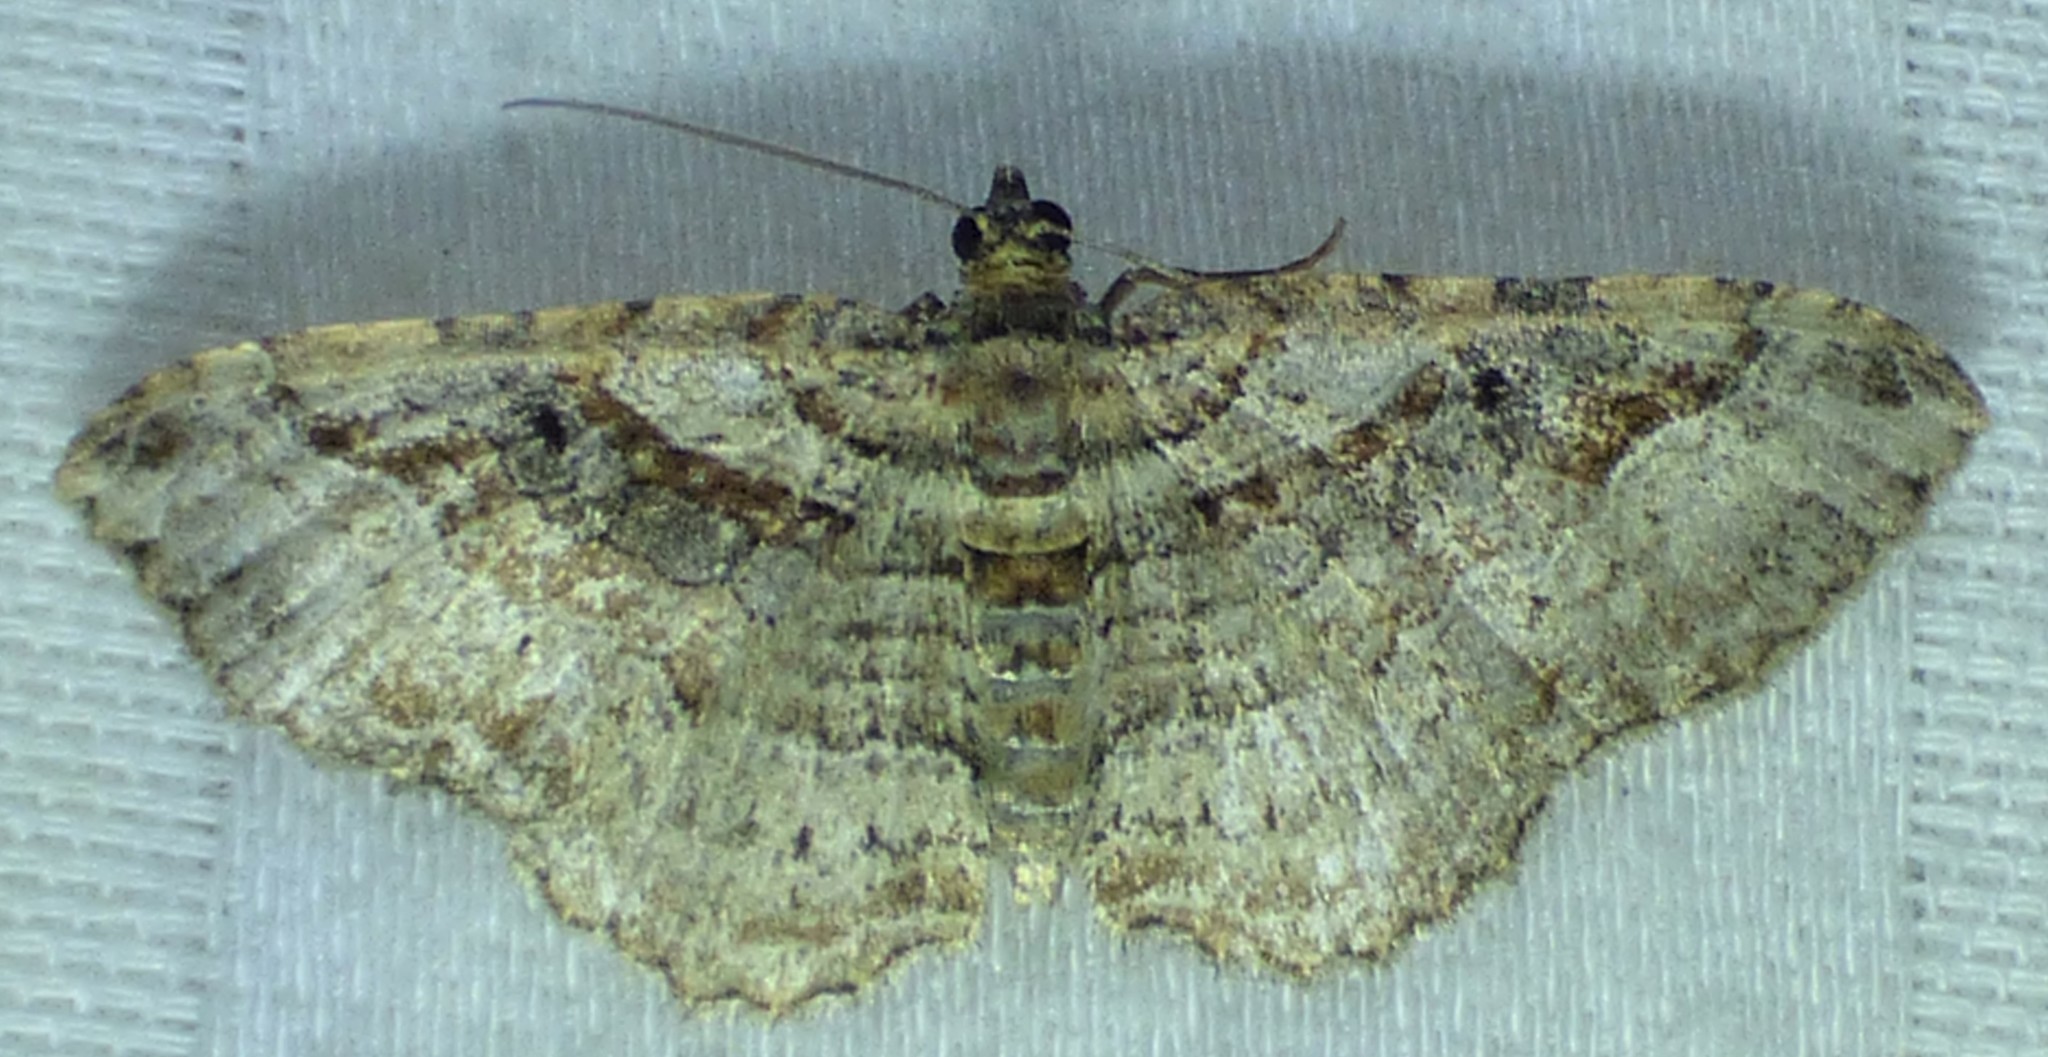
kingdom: Animalia
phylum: Arthropoda
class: Insecta
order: Lepidoptera
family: Geometridae
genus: Costaconvexa
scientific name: Costaconvexa centrostrigaria
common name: Bent-line carpet
